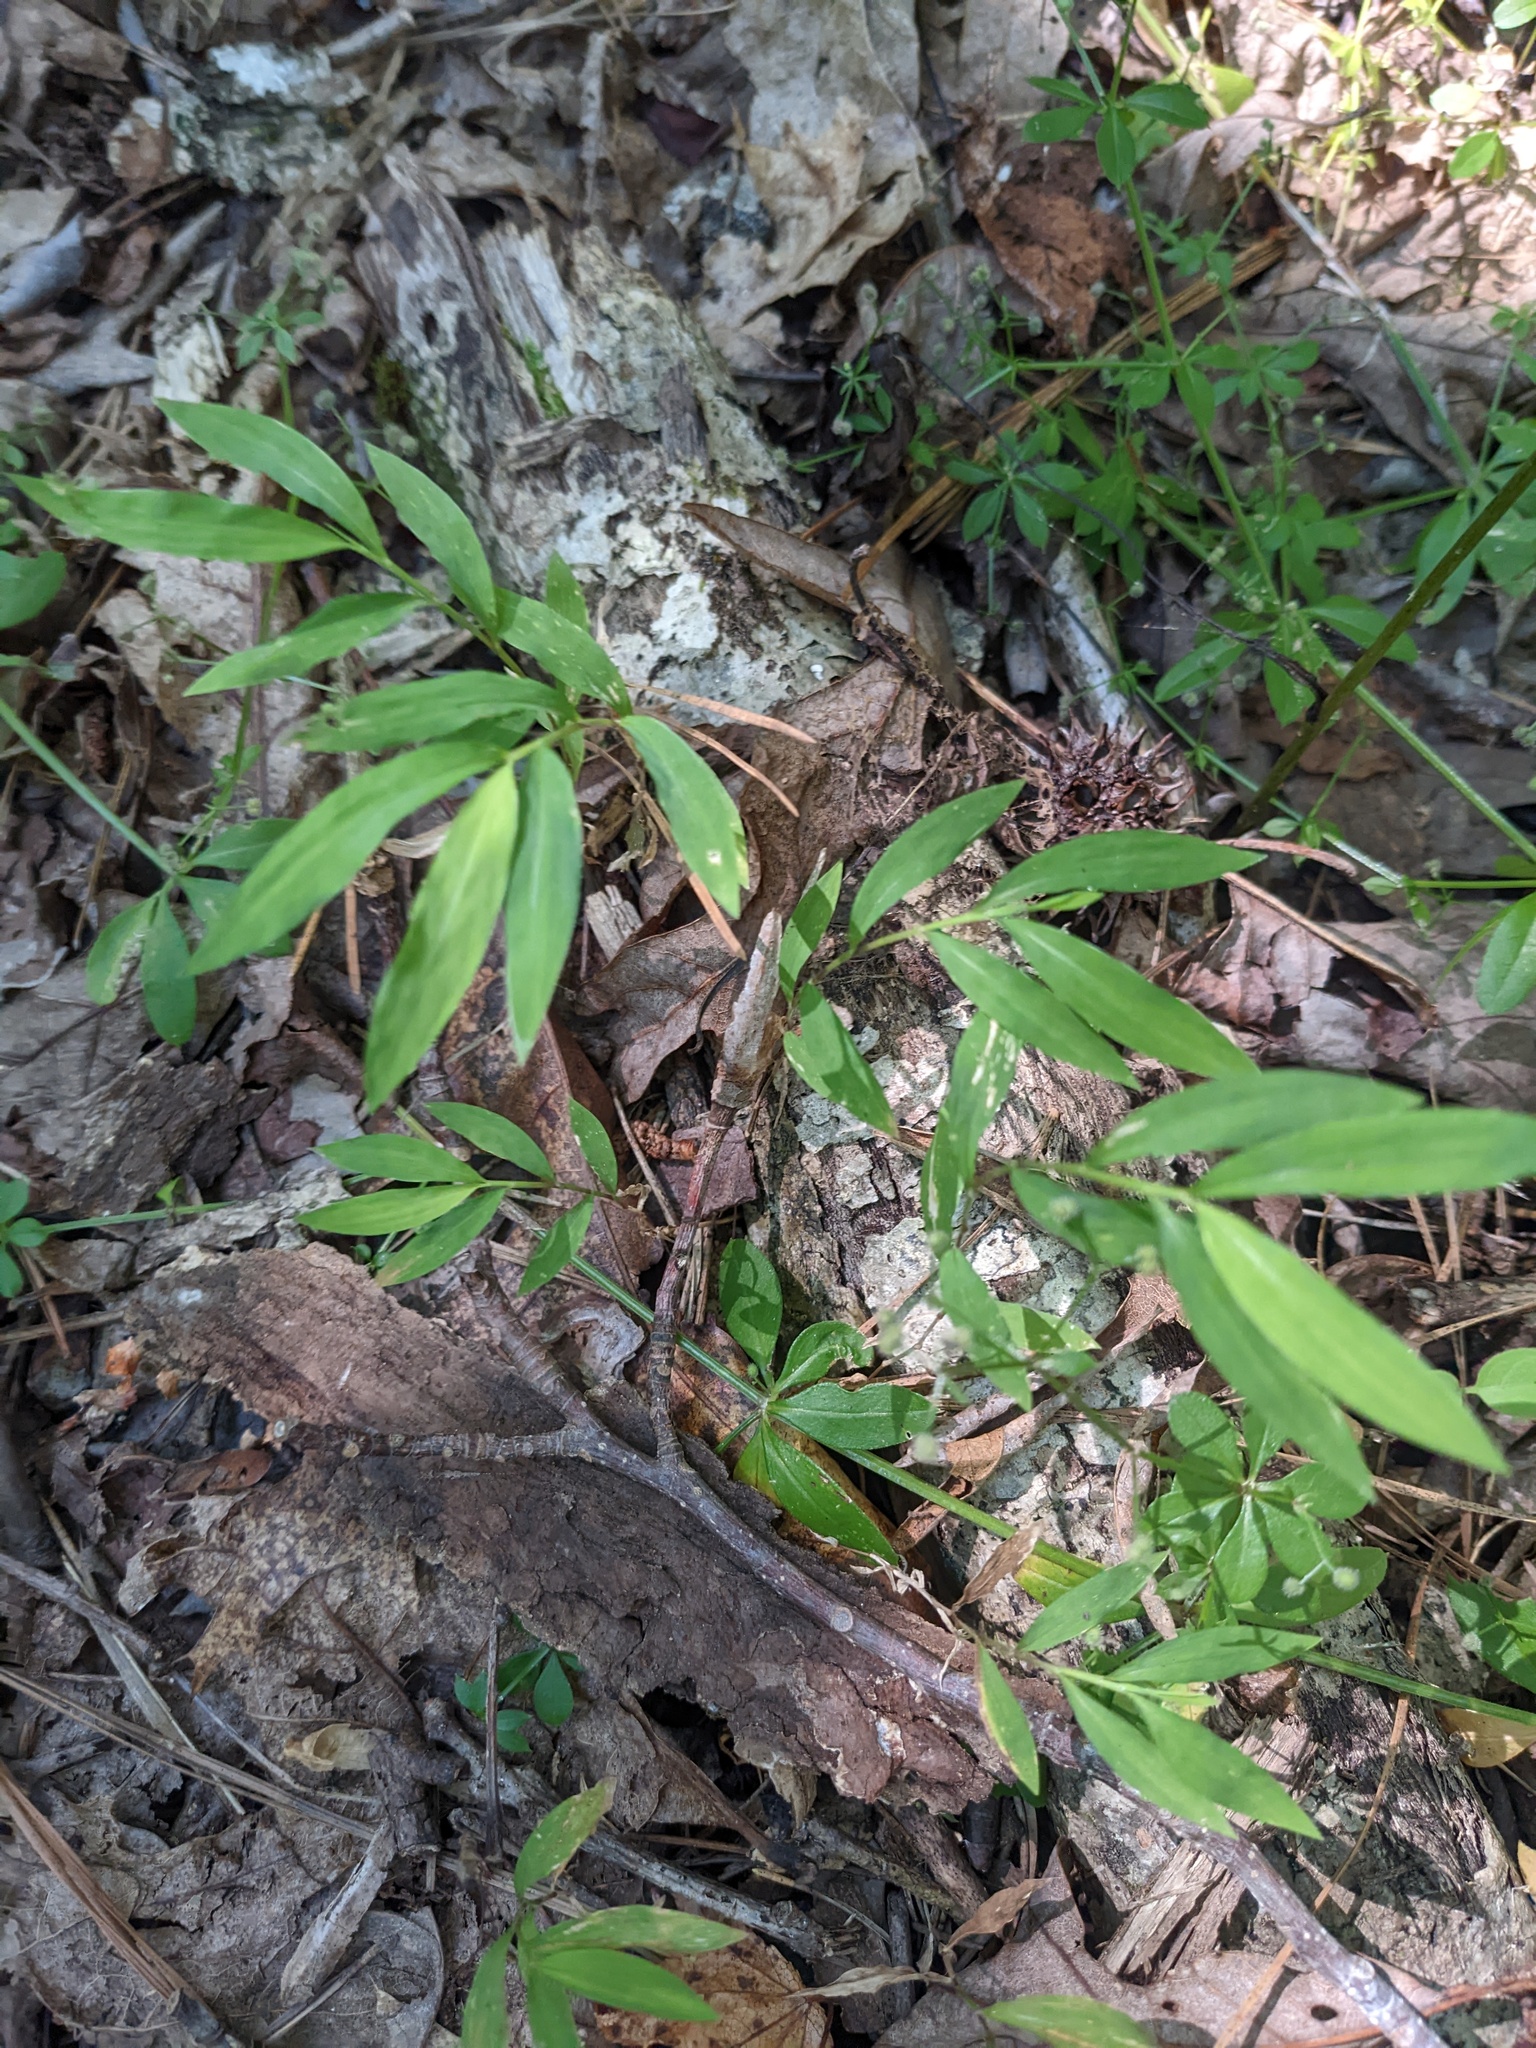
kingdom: Plantae
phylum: Tracheophyta
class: Liliopsida
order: Poales
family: Poaceae
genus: Microstegium
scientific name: Microstegium vimineum
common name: Japanese stiltgrass
